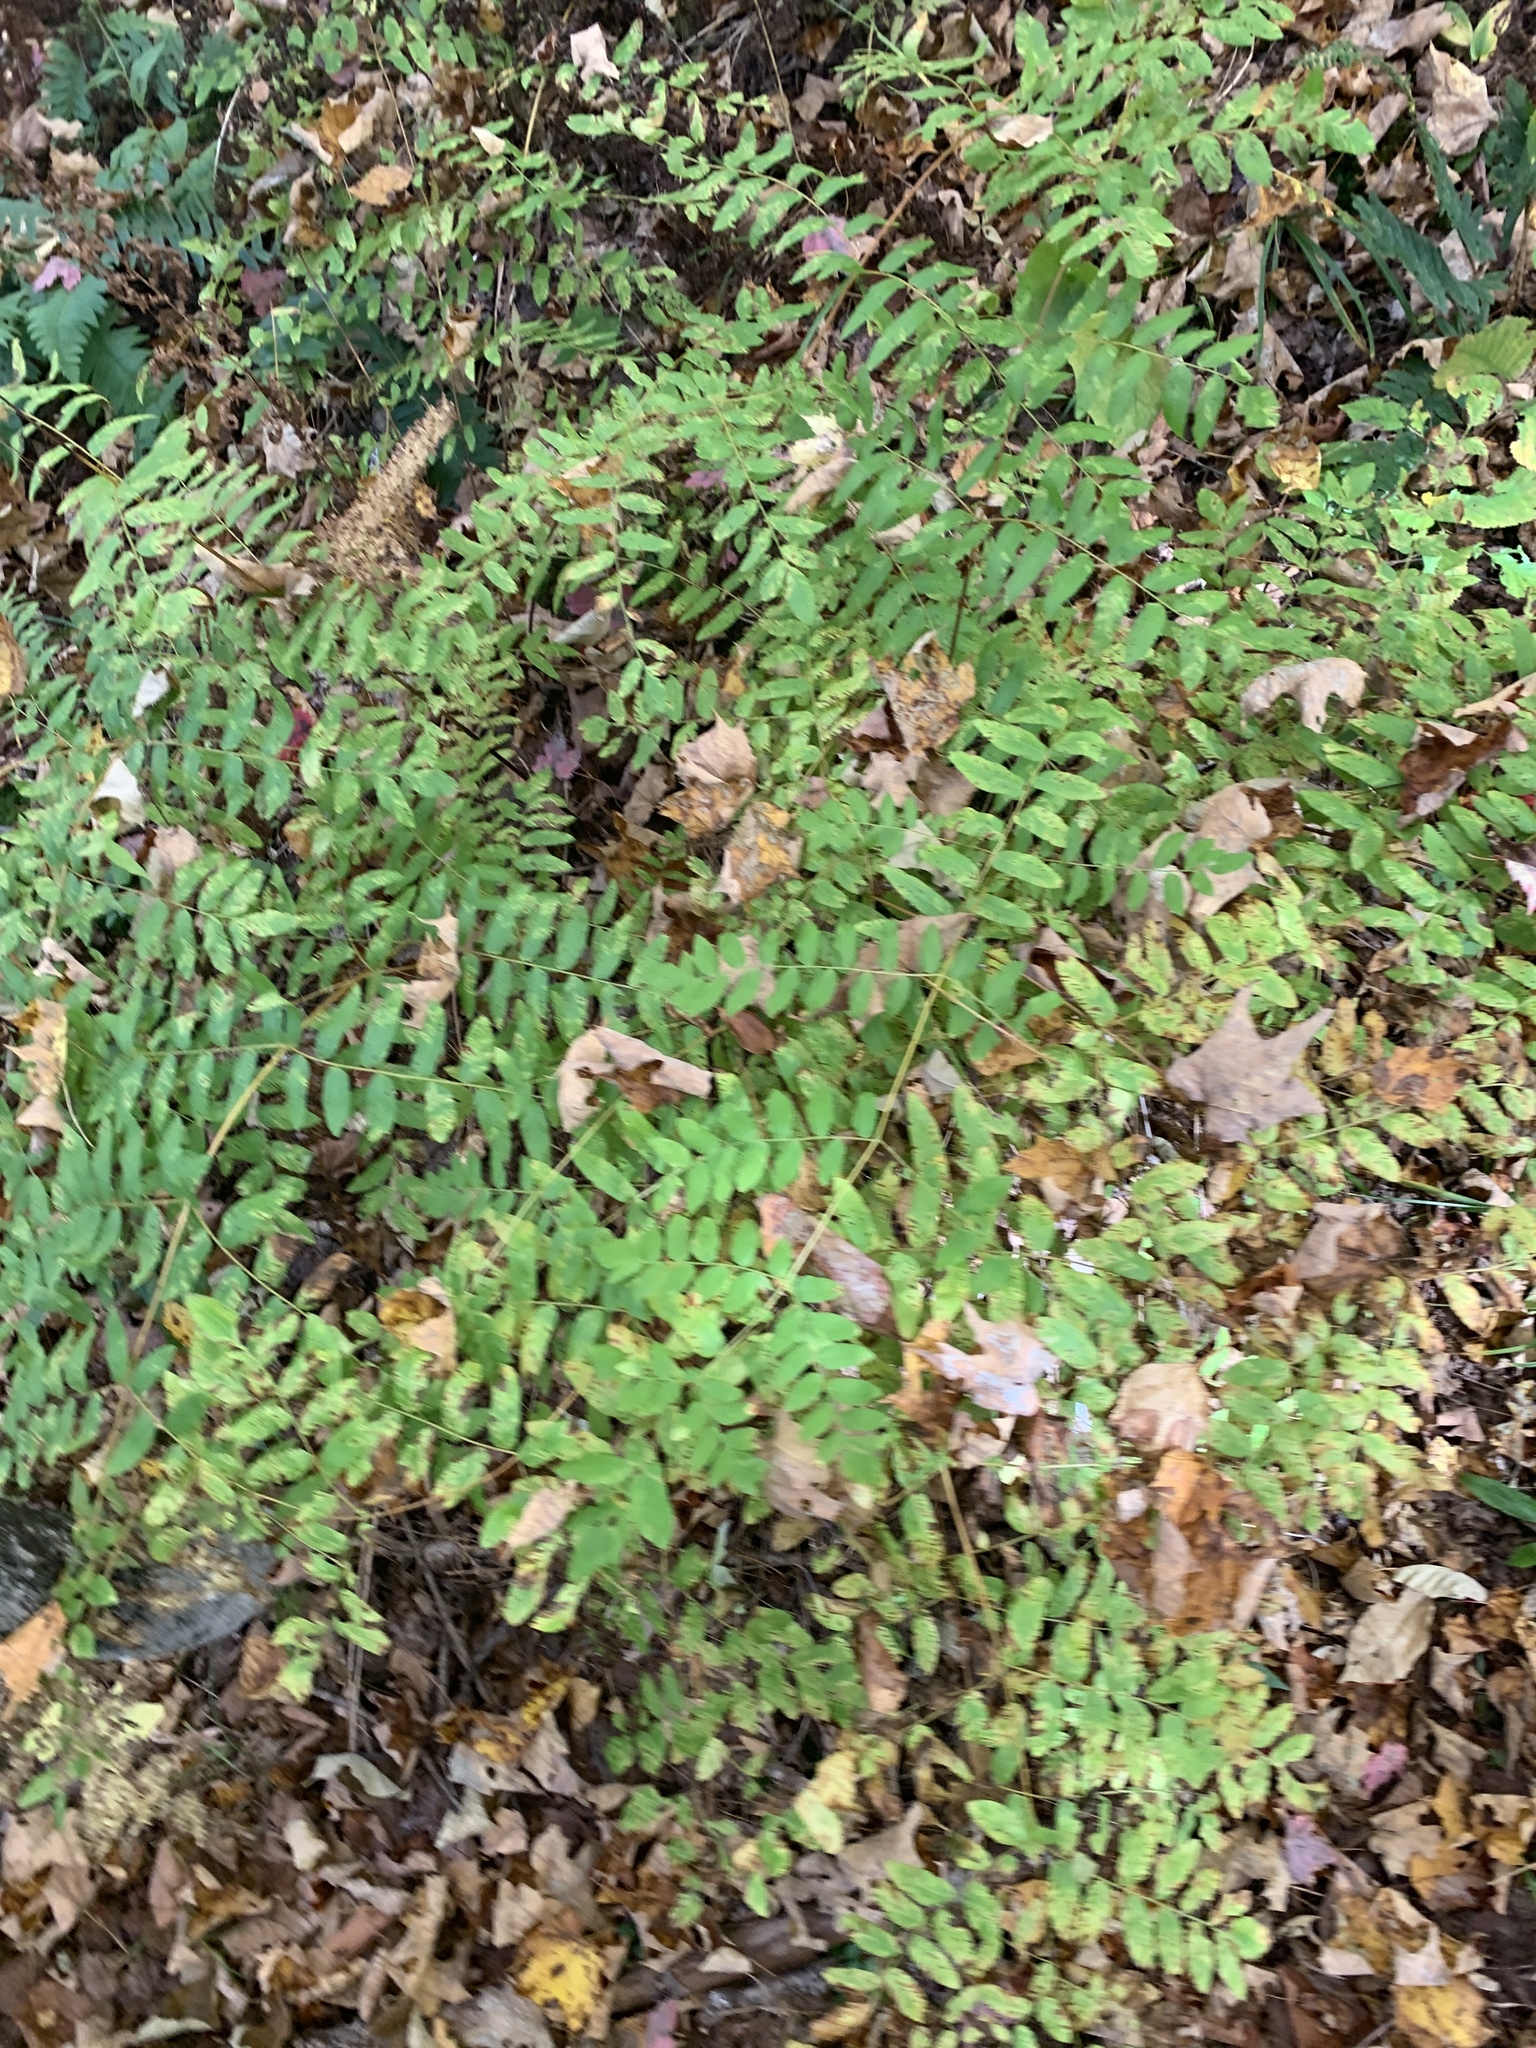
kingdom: Plantae
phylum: Tracheophyta
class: Polypodiopsida
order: Osmundales
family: Osmundaceae
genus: Osmunda
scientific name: Osmunda spectabilis
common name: American royal fern
